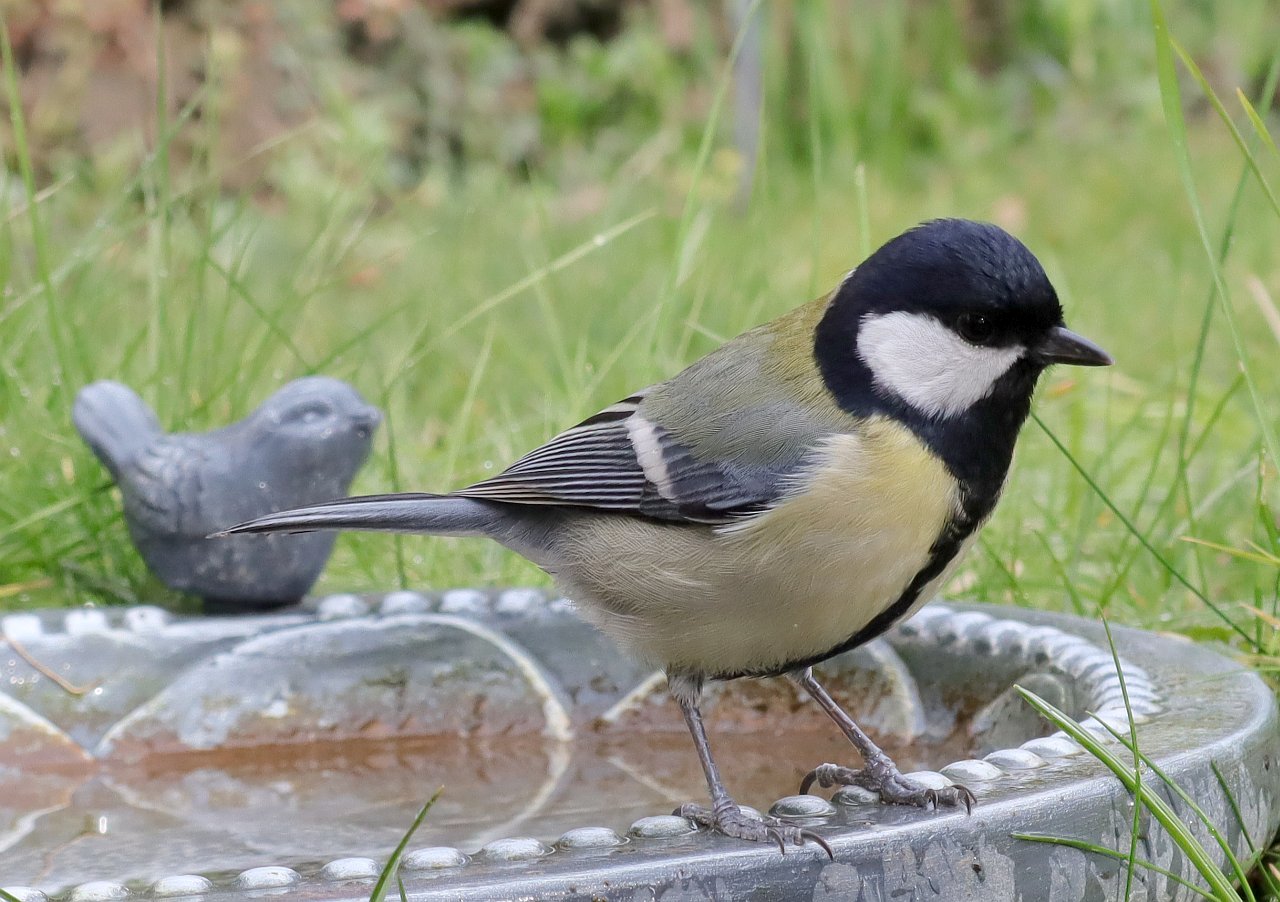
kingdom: Animalia
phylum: Chordata
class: Aves
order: Passeriformes
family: Paridae
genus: Parus
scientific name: Parus major
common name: Great tit
